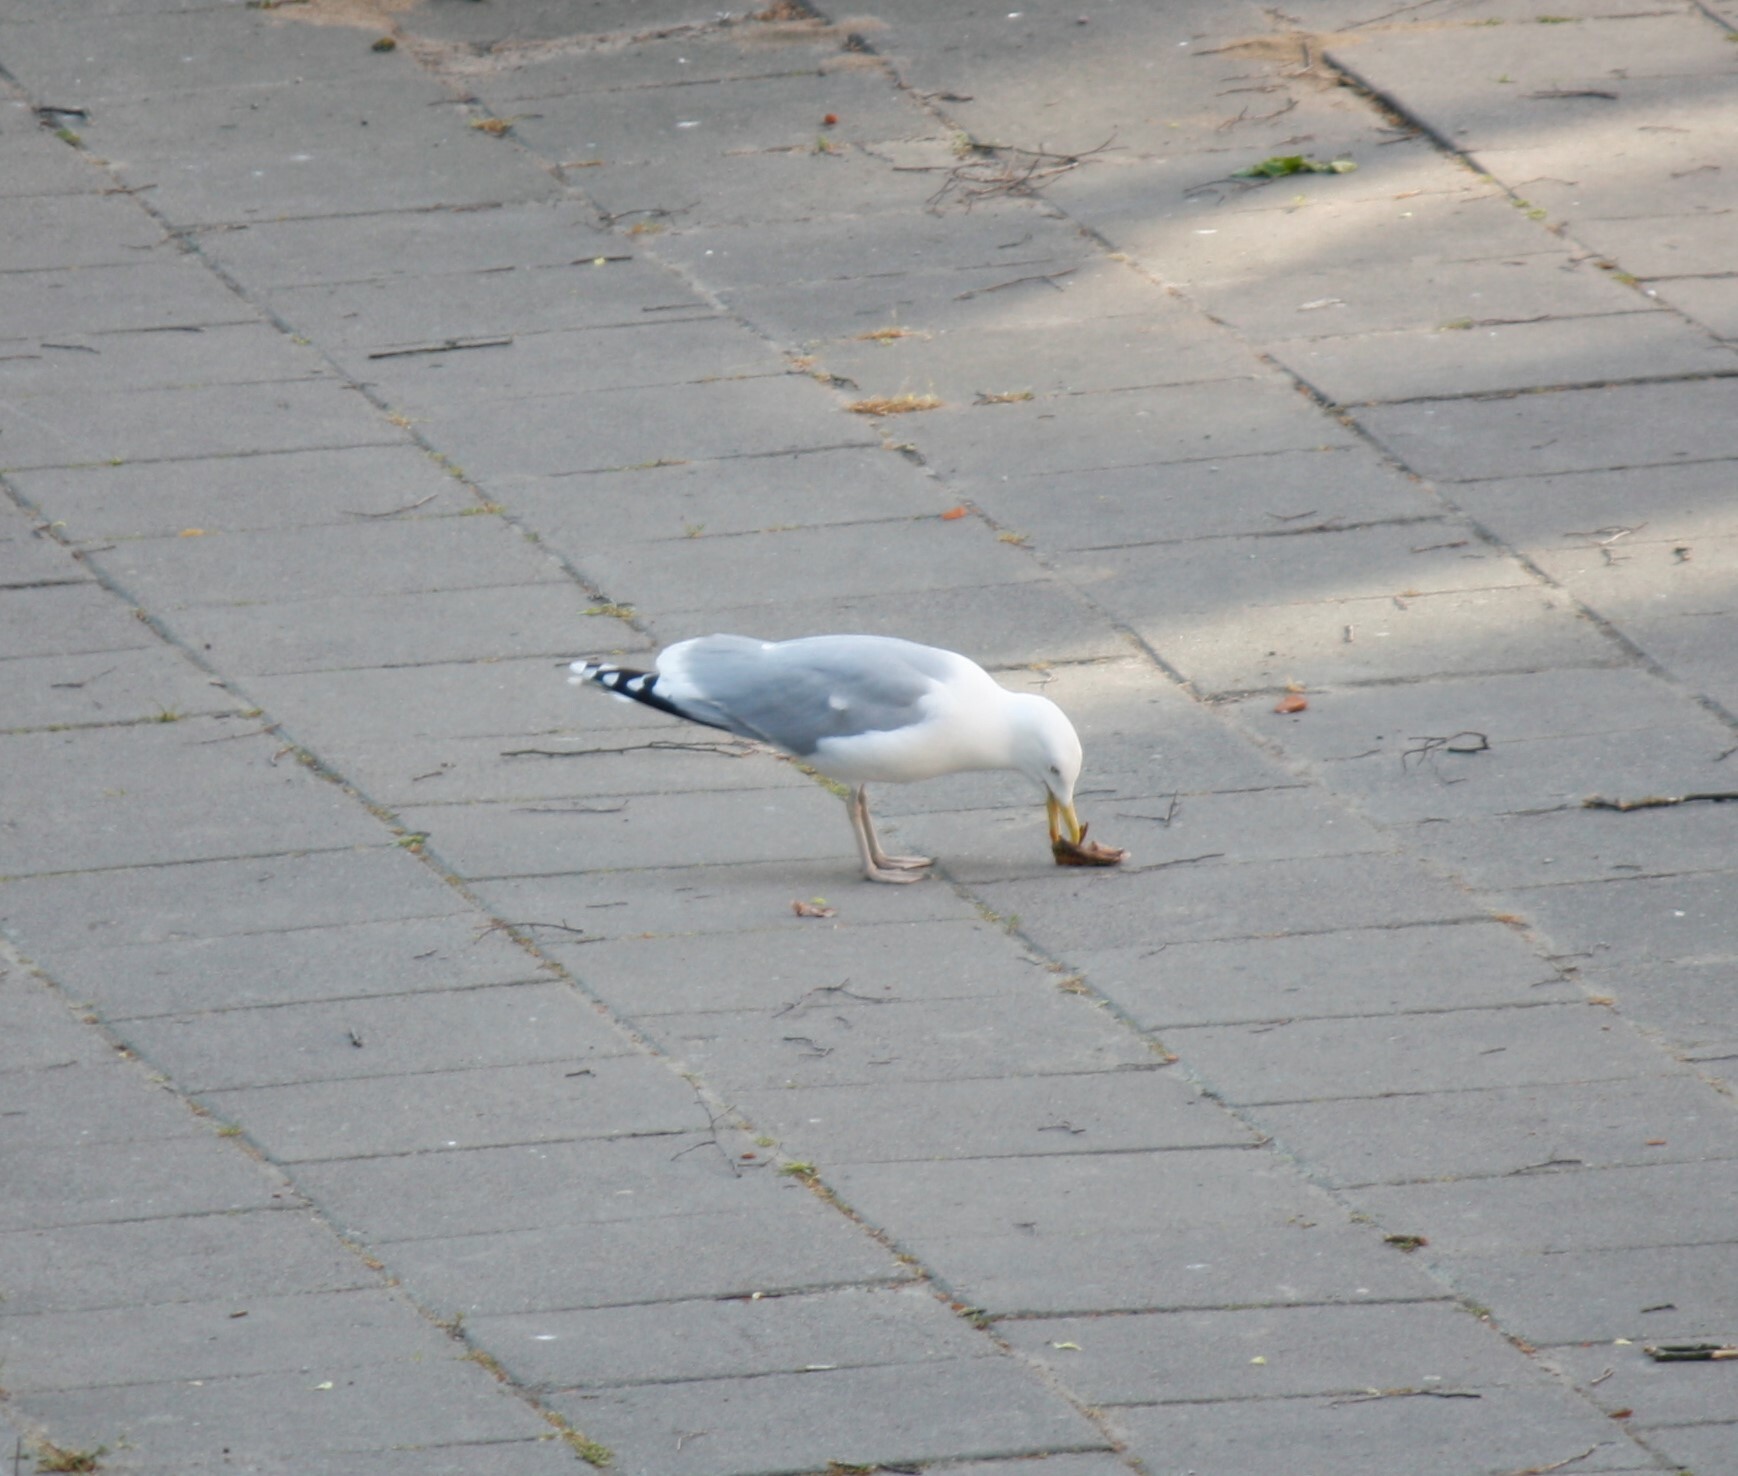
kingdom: Animalia
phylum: Chordata
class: Aves
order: Charadriiformes
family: Laridae
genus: Larus
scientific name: Larus argentatus
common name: Herring gull
